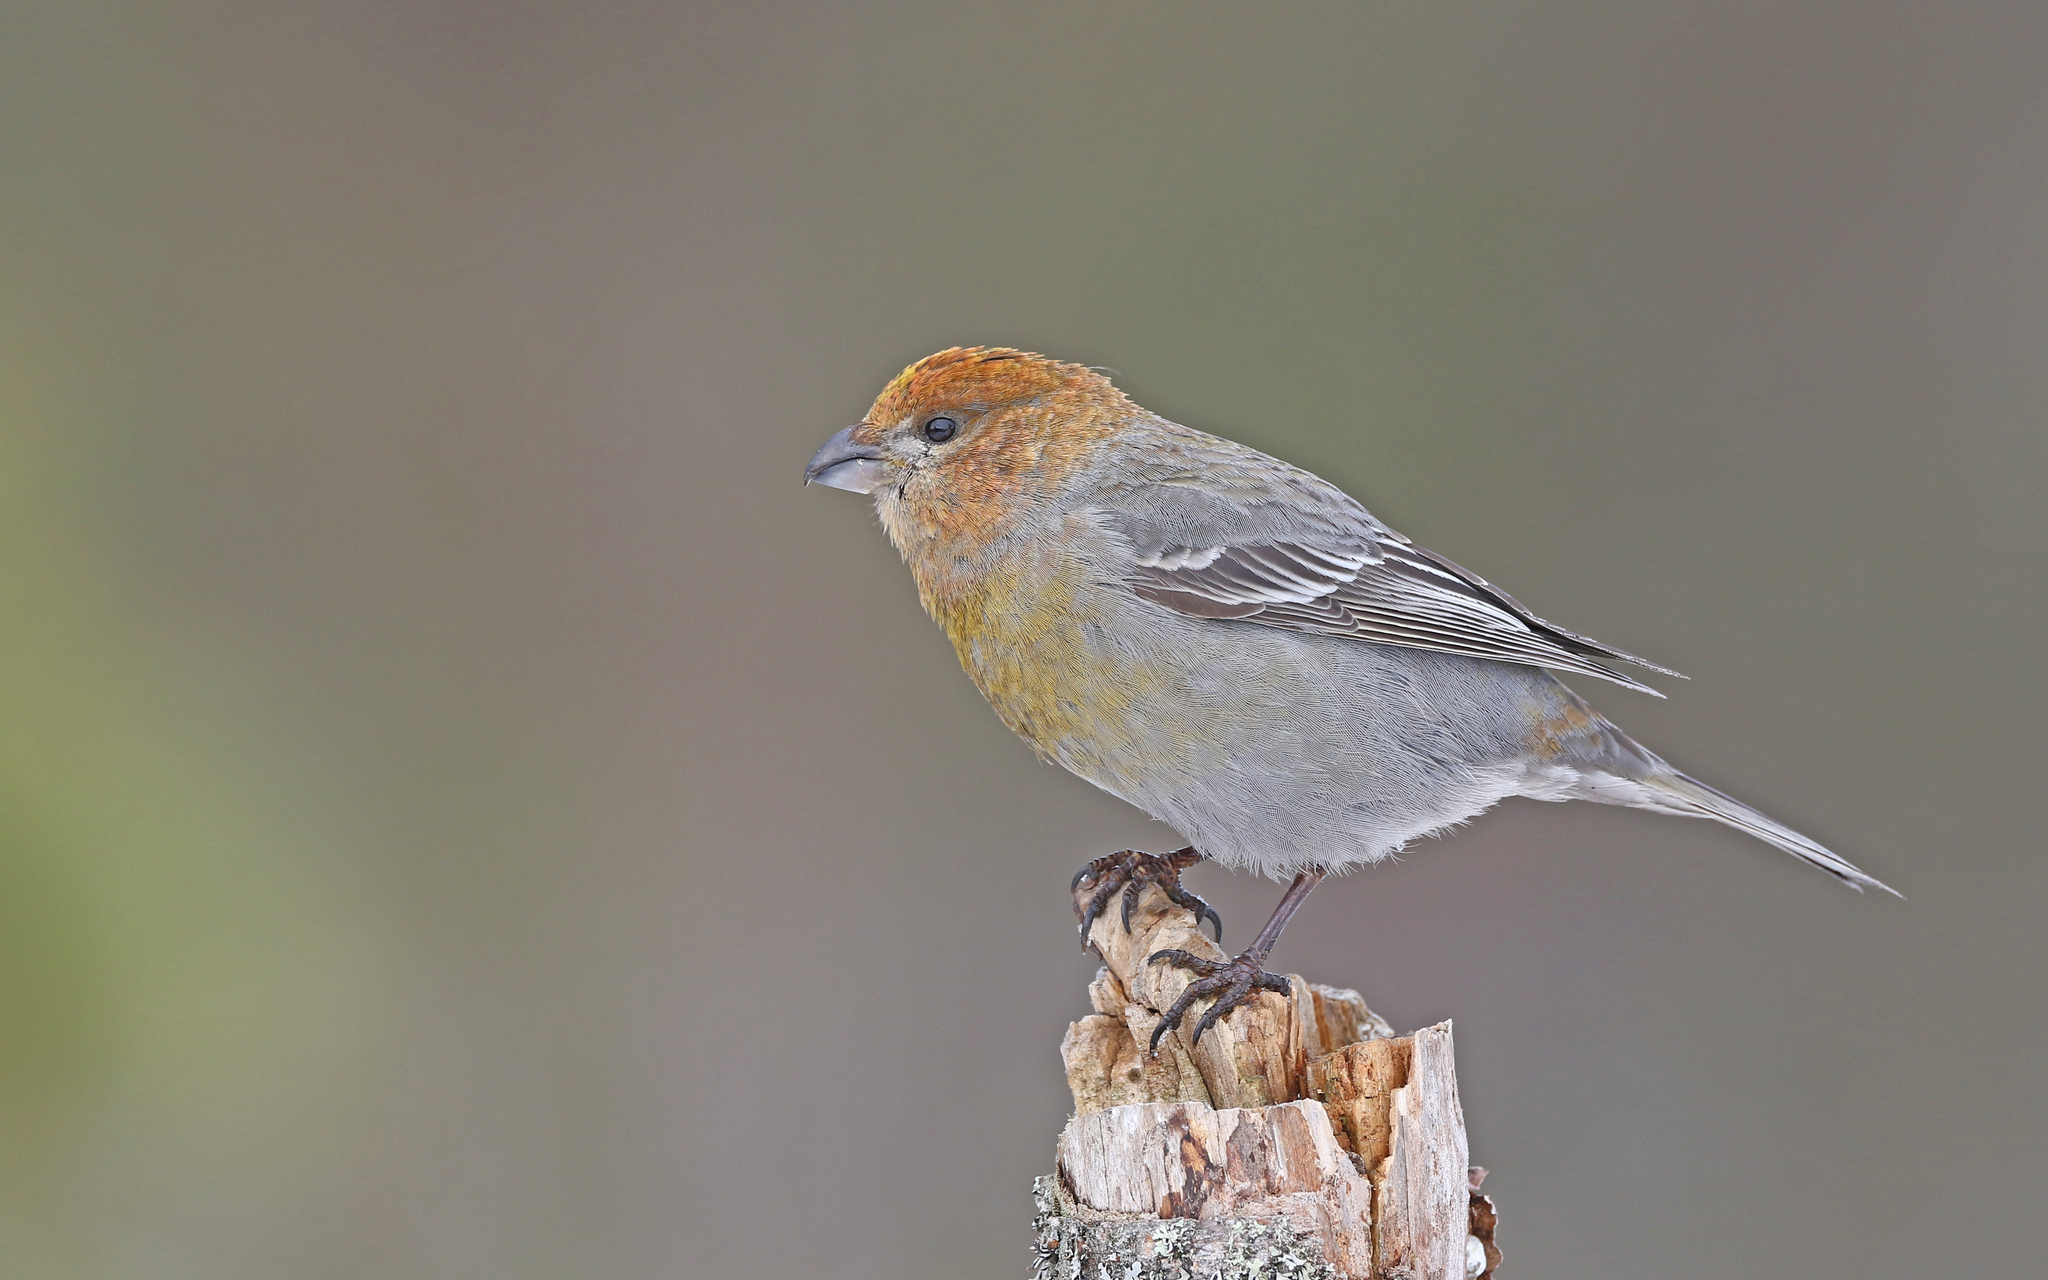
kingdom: Animalia
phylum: Chordata
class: Aves
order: Passeriformes
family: Fringillidae
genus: Pinicola
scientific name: Pinicola enucleator
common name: Pine grosbeak
